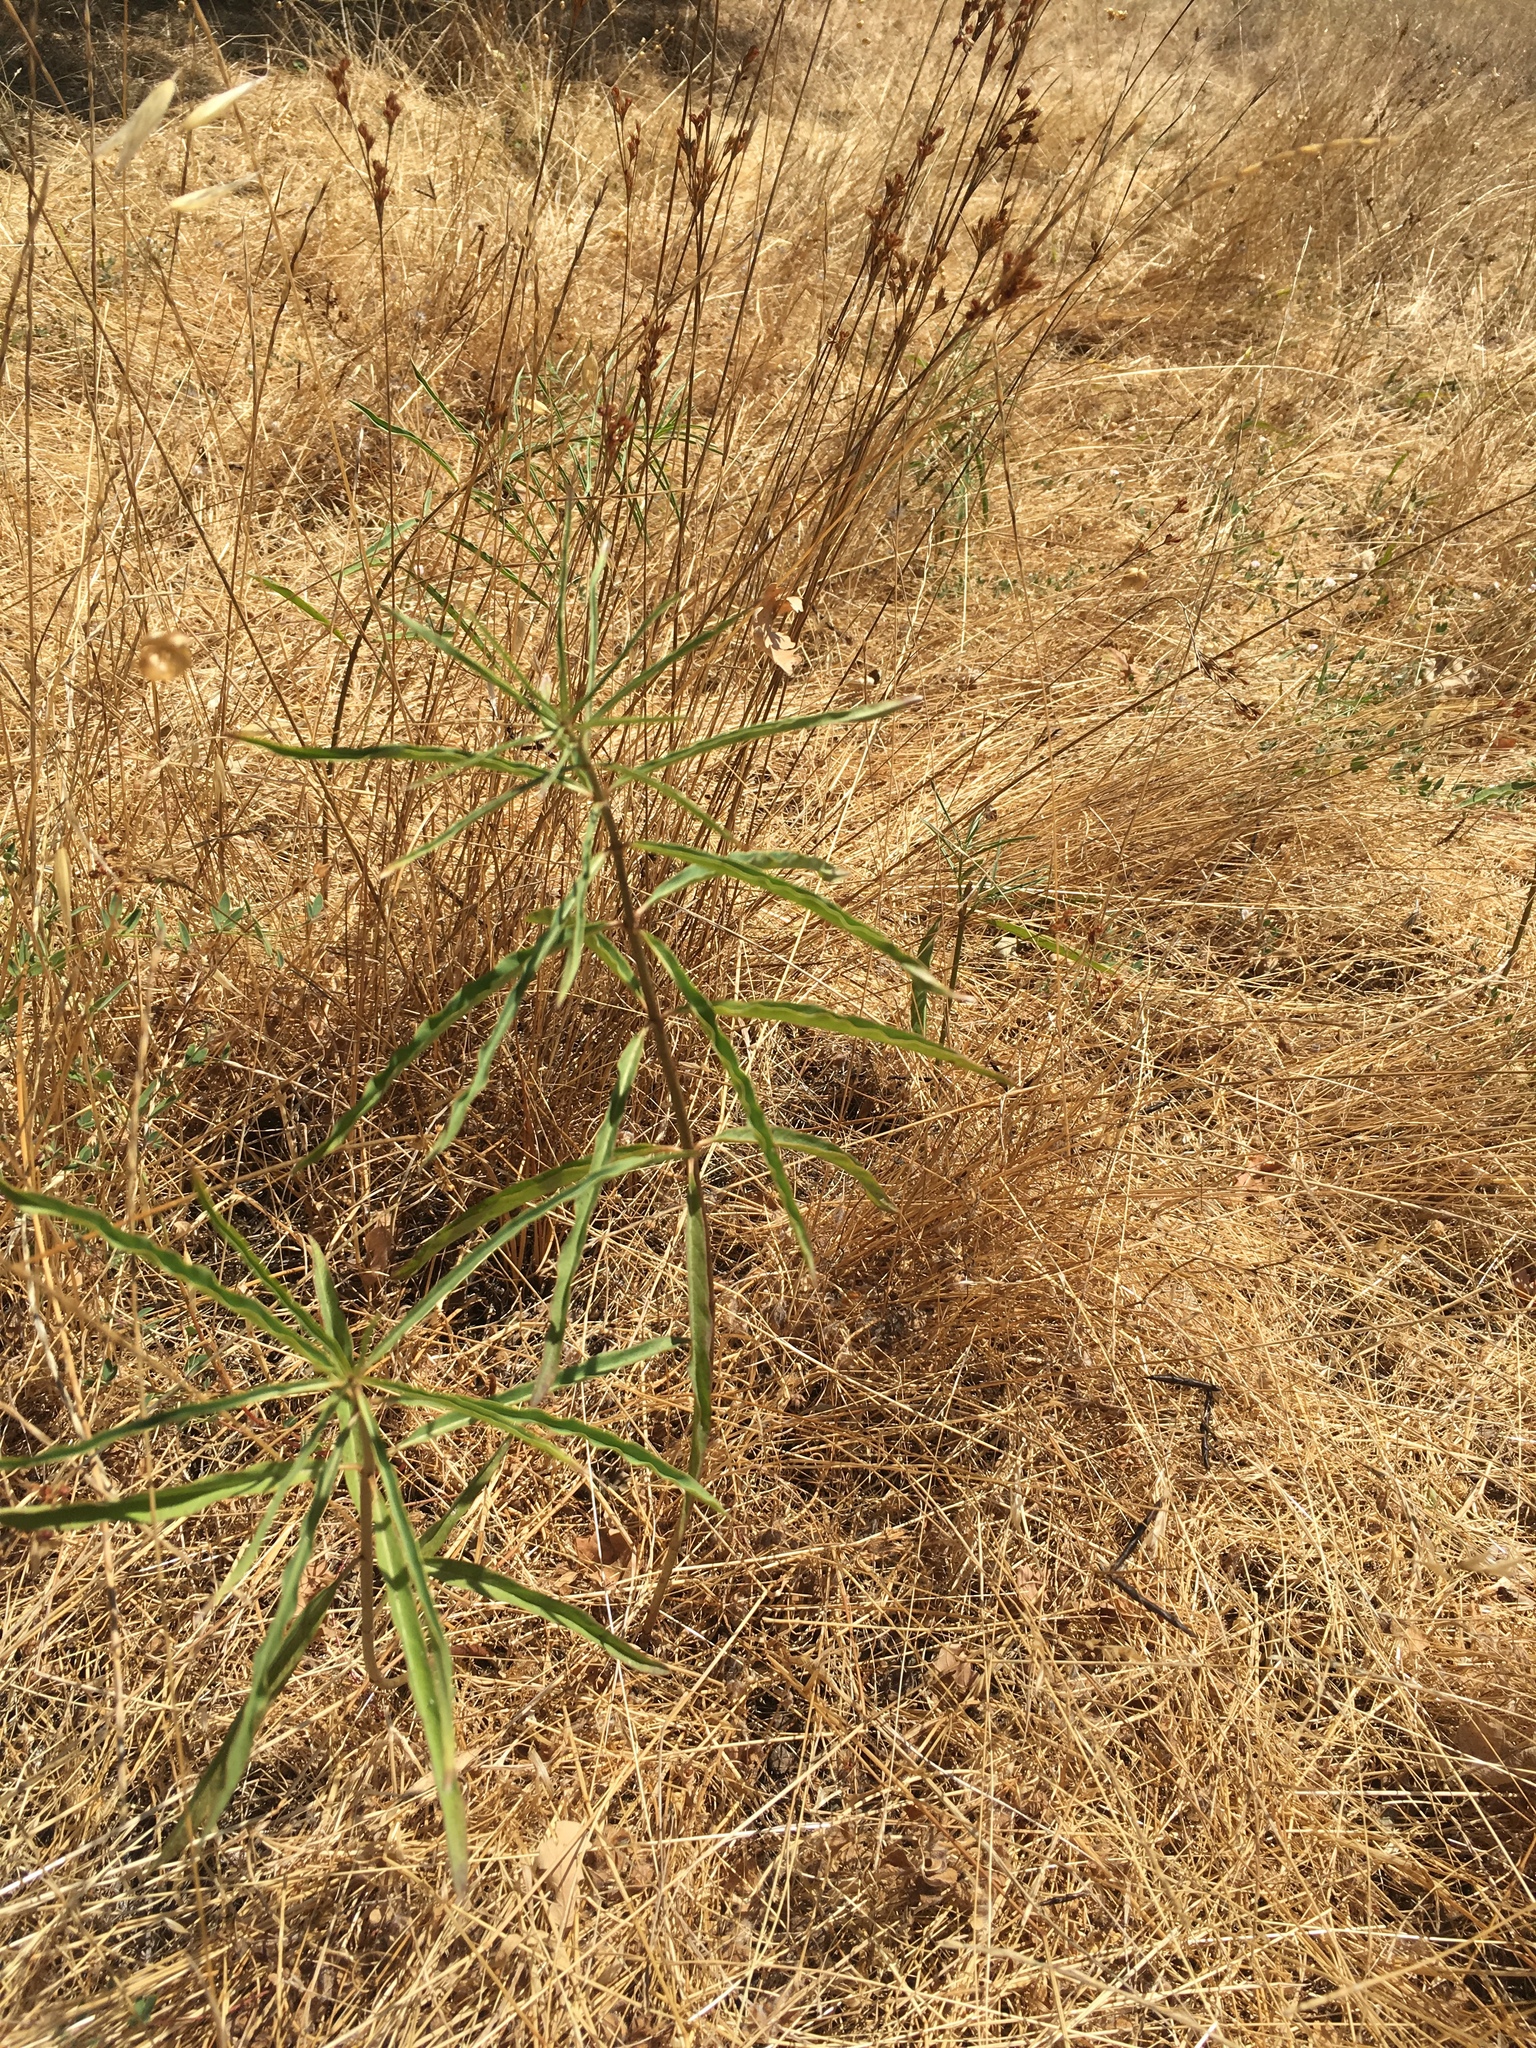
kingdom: Plantae
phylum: Tracheophyta
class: Magnoliopsida
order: Gentianales
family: Apocynaceae
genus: Asclepias
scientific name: Asclepias fascicularis
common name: Mexican milkweed
